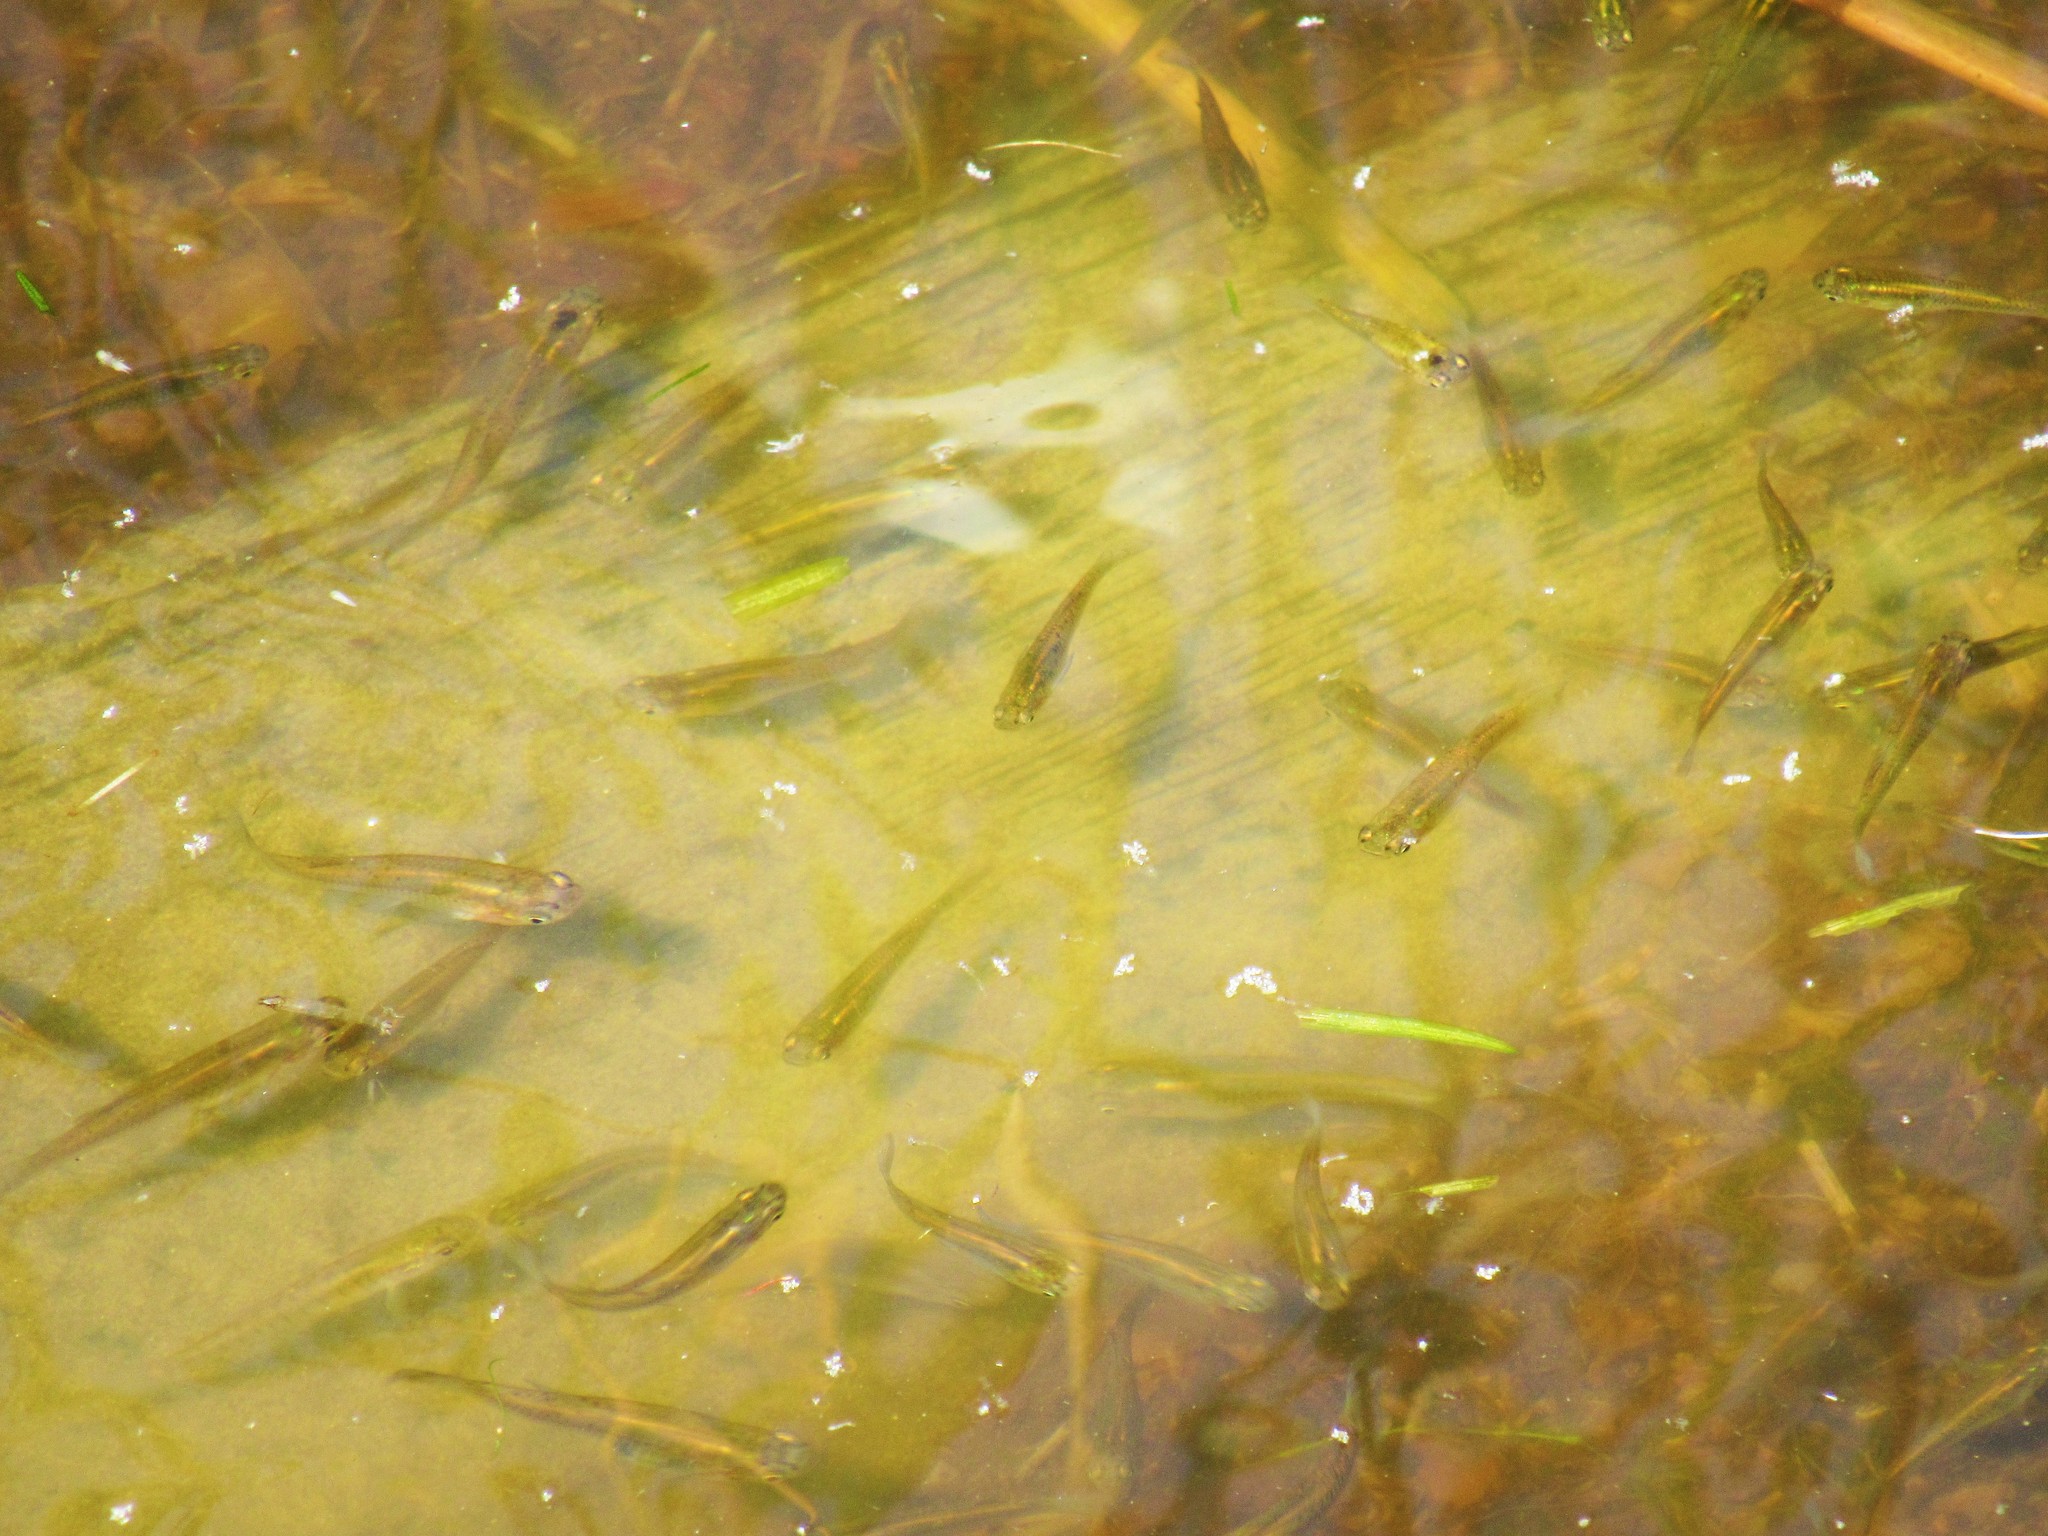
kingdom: Animalia
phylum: Chordata
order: Cyprinodontiformes
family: Poeciliidae
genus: Gambusia
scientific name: Gambusia holbrooki
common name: Eastern mosquitofish
